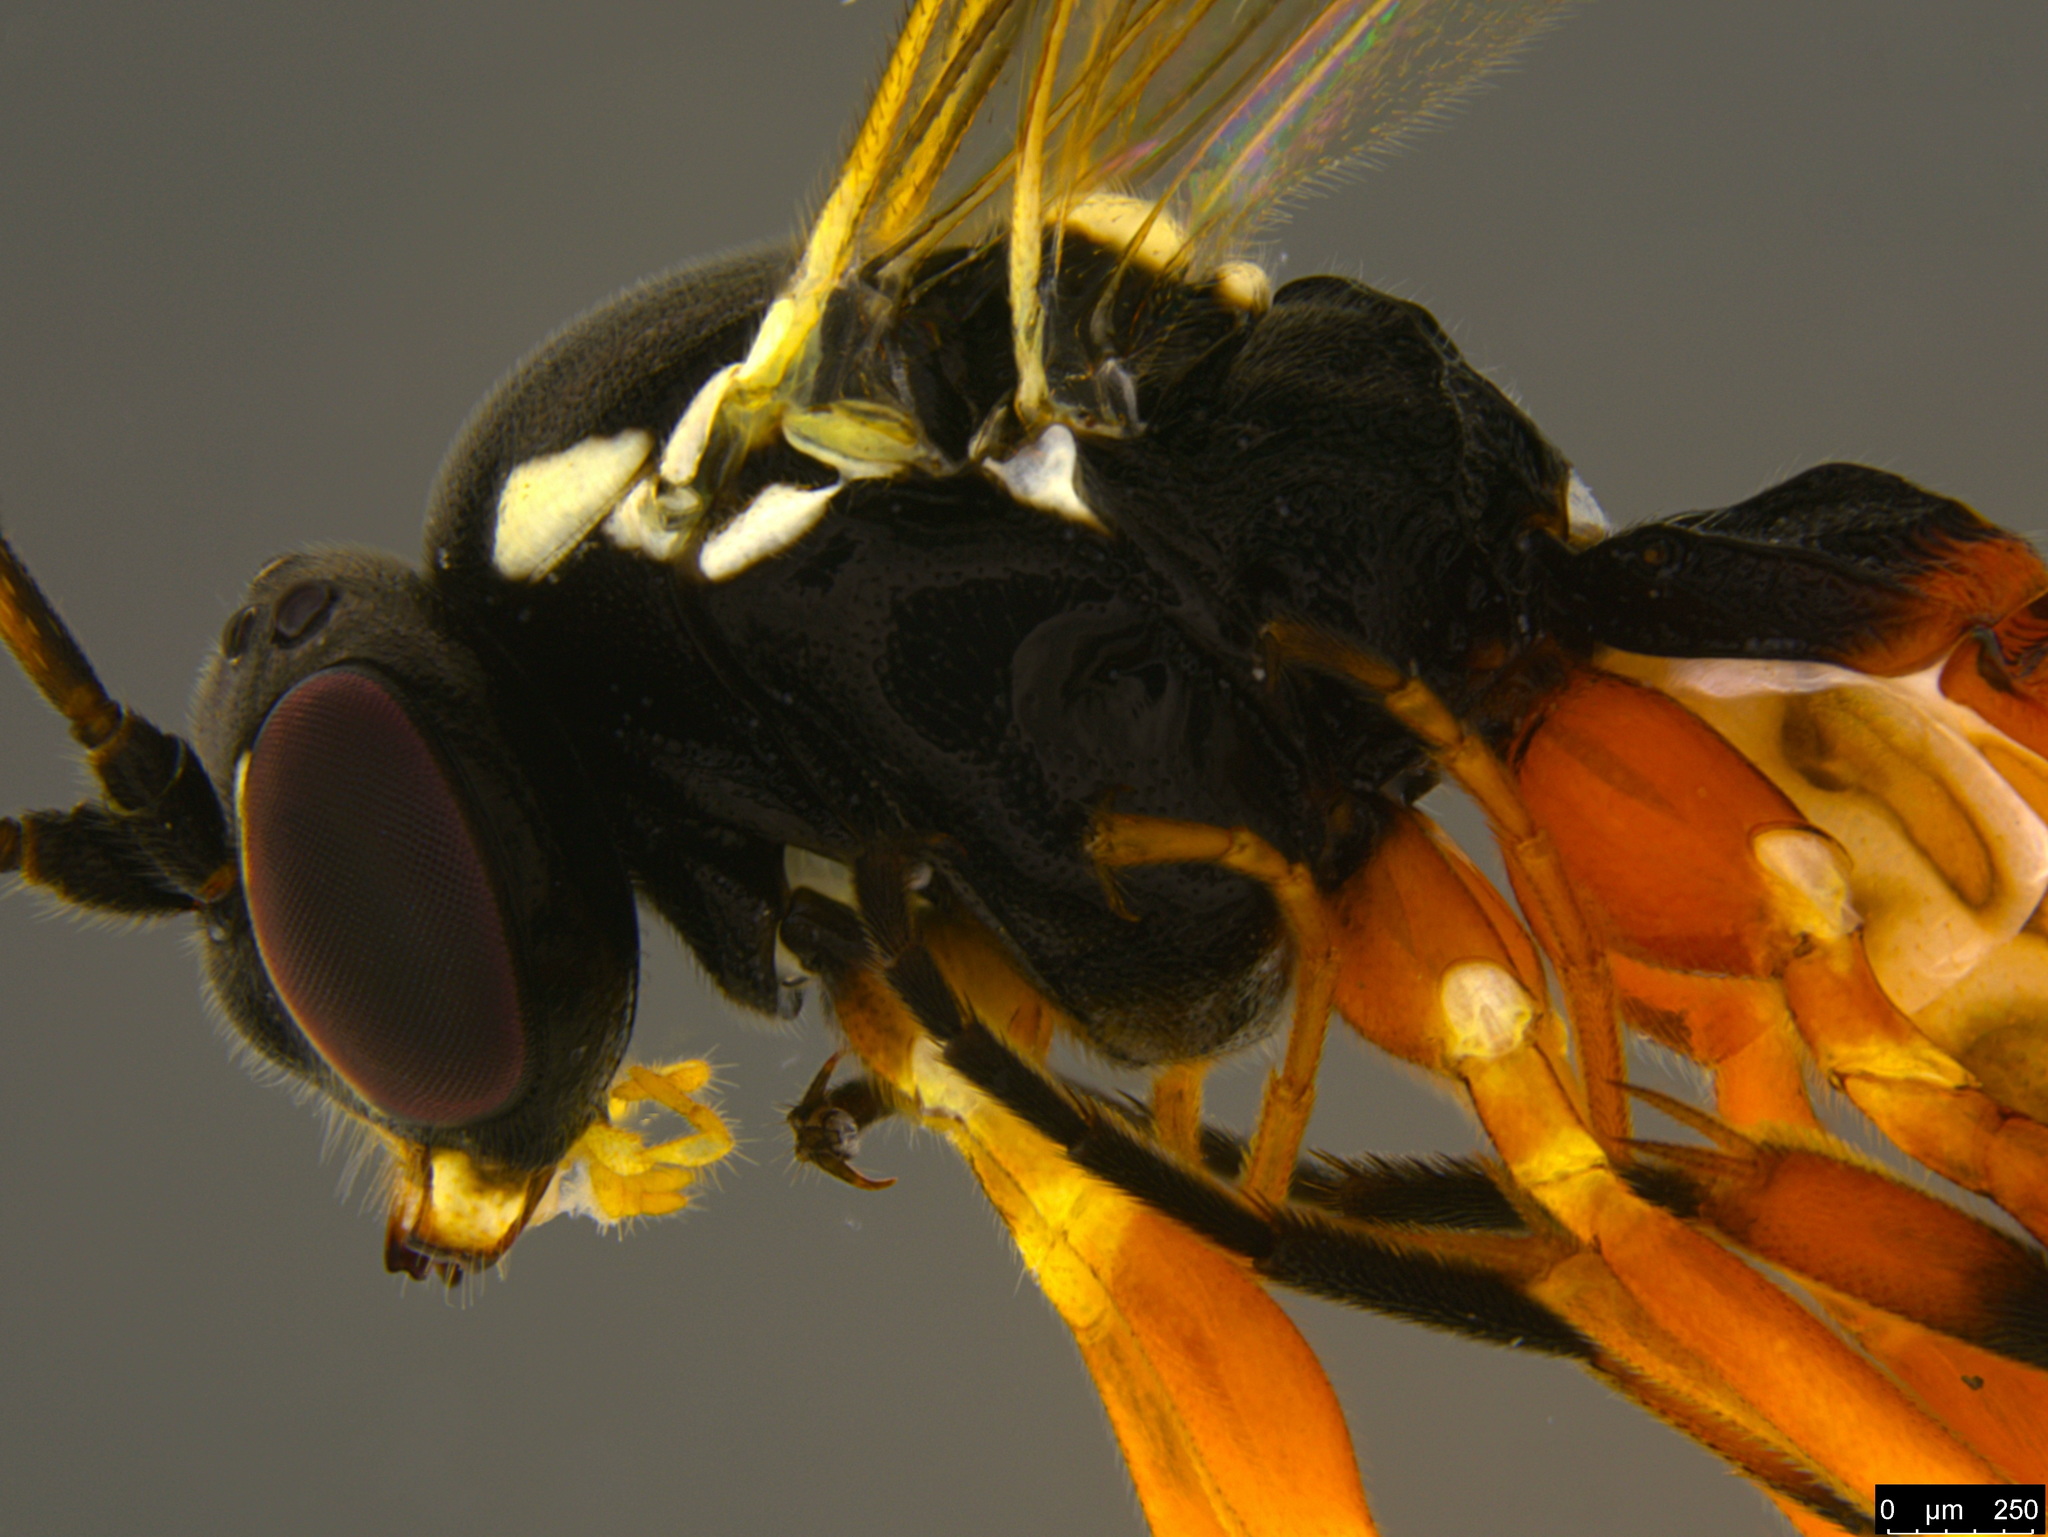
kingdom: Animalia
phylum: Arthropoda
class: Insecta
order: Hymenoptera
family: Ichneumonidae
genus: Diplazon
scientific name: Diplazon laetatorius
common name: Parasitoid wasp
